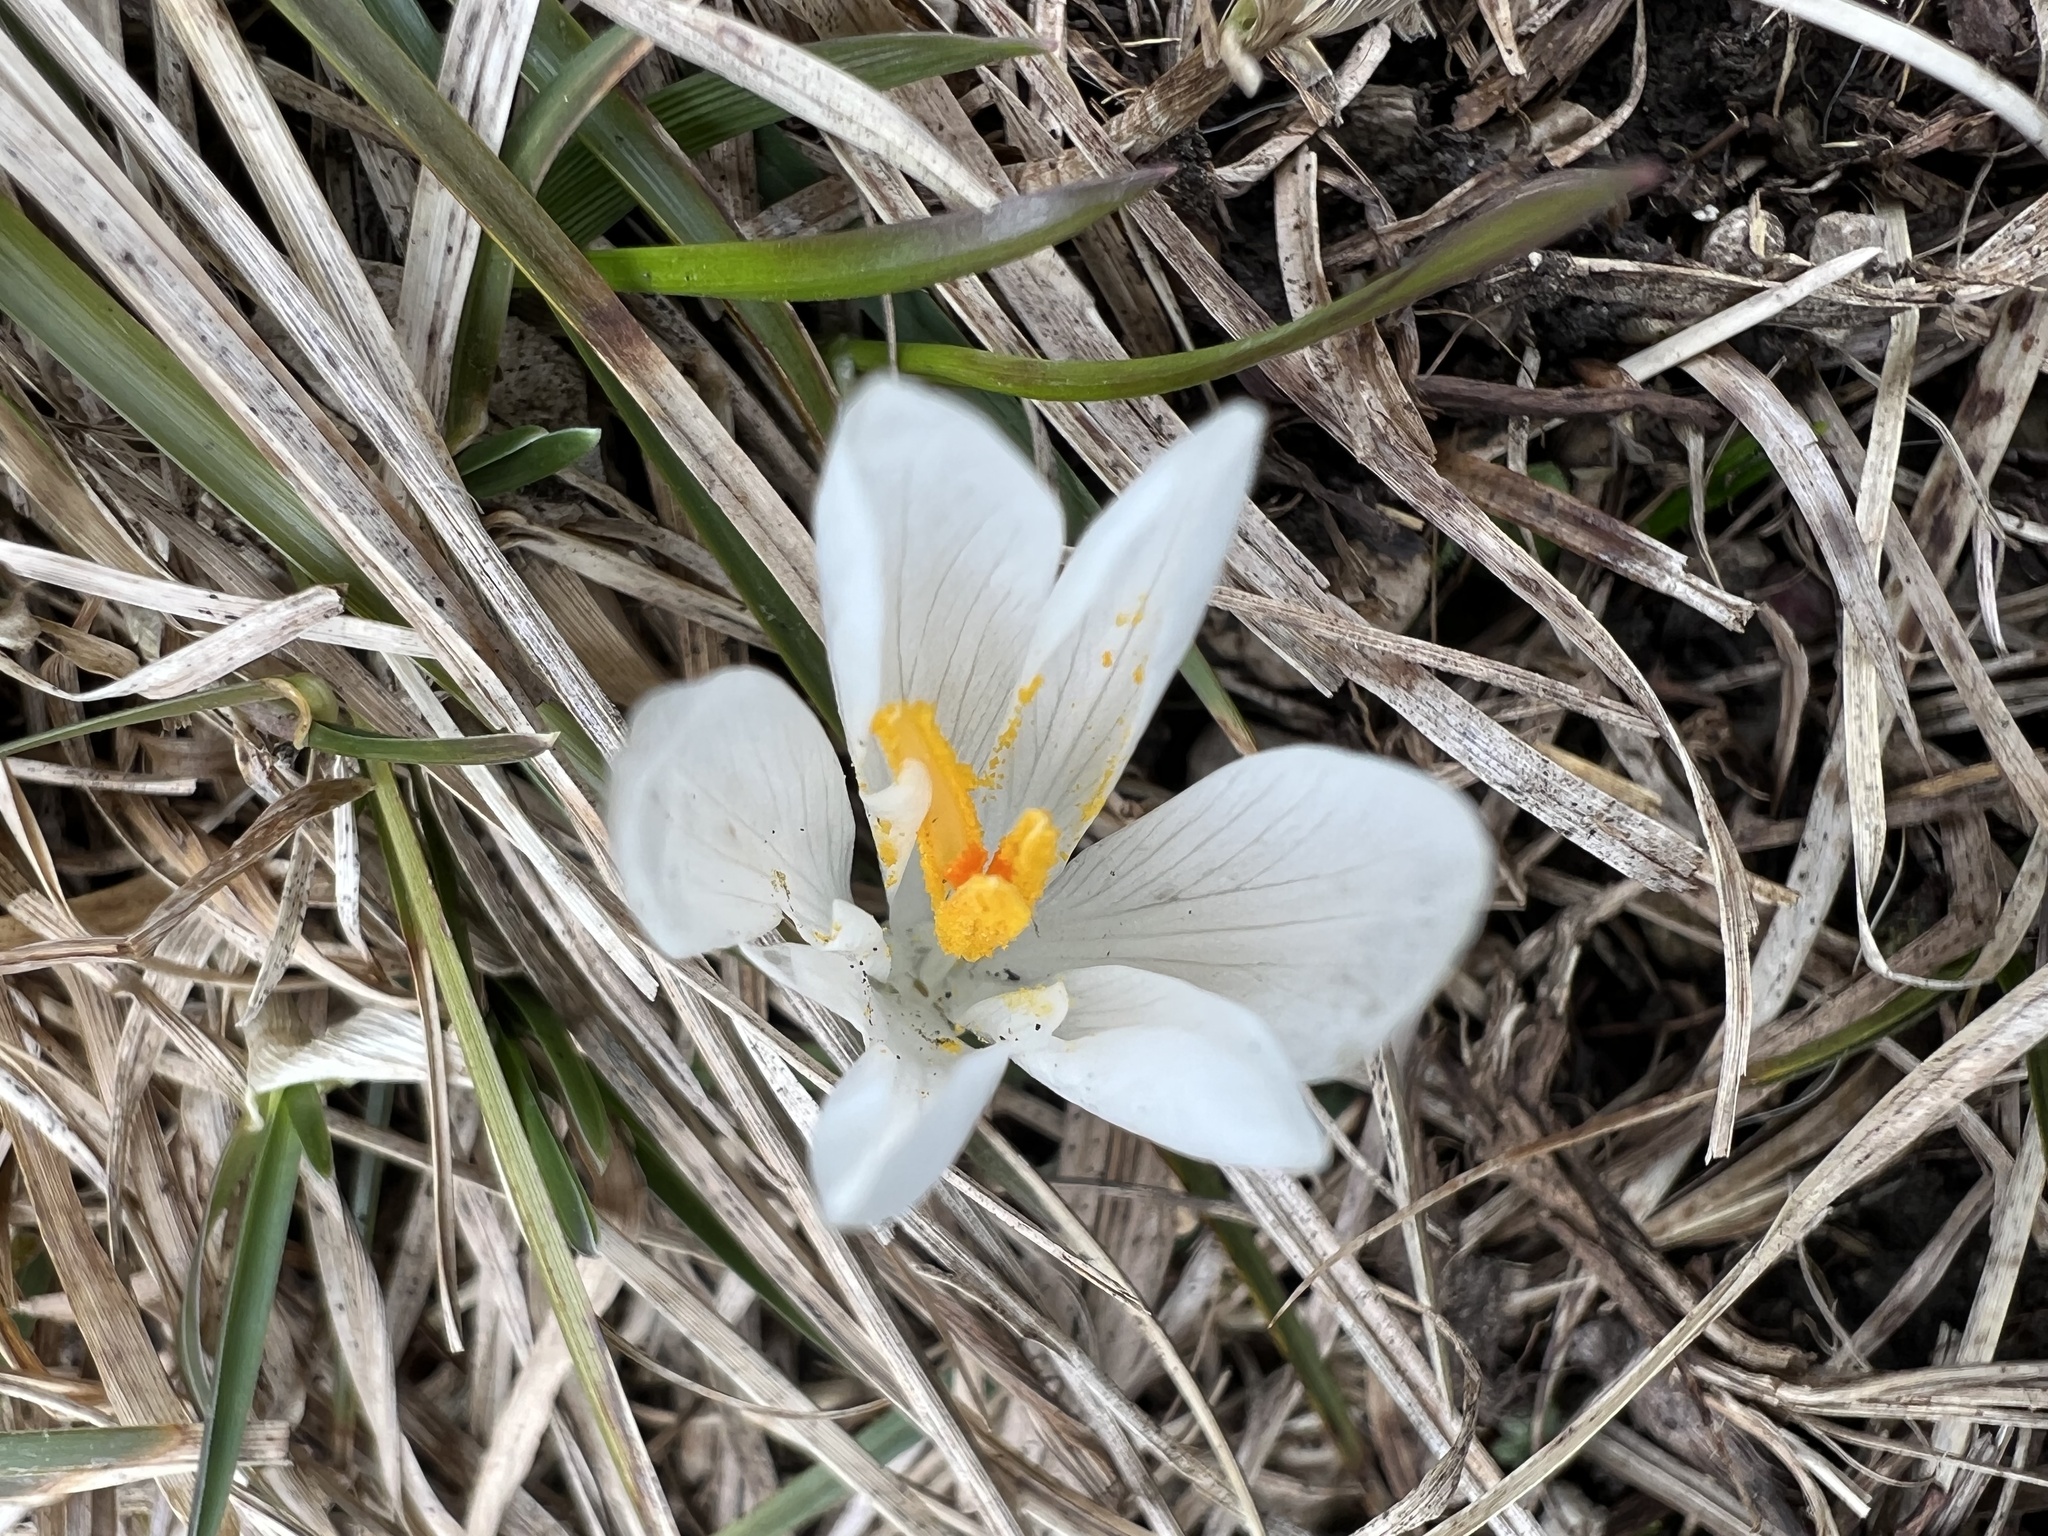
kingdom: Plantae
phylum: Tracheophyta
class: Liliopsida
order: Asparagales
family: Iridaceae
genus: Crocus
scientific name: Crocus vernus
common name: Spring crocus
